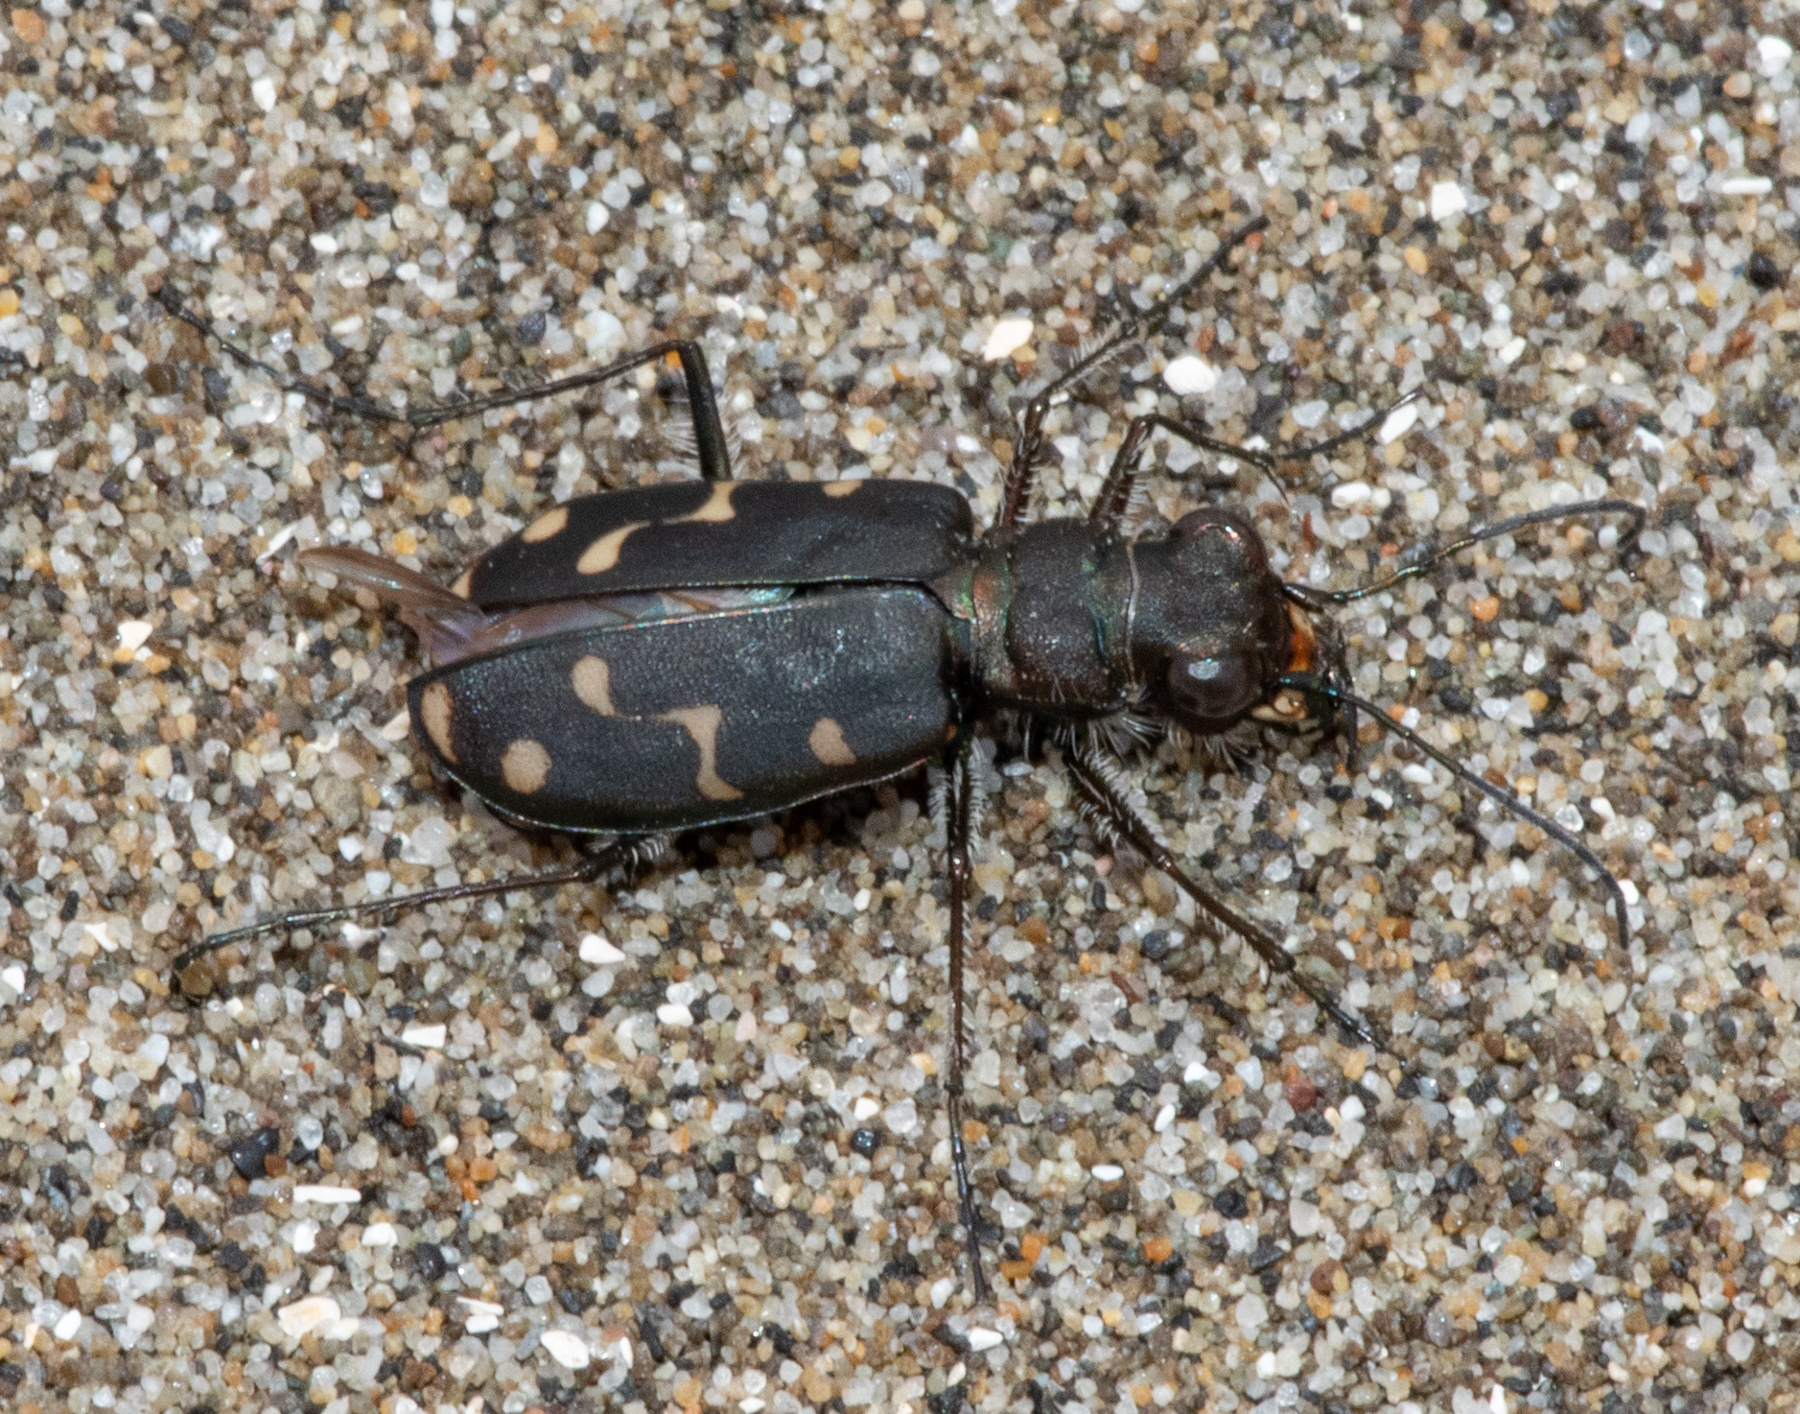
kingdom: Animalia
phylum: Arthropoda
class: Insecta
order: Coleoptera
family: Carabidae
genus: Cicindela
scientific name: Cicindela oregona
